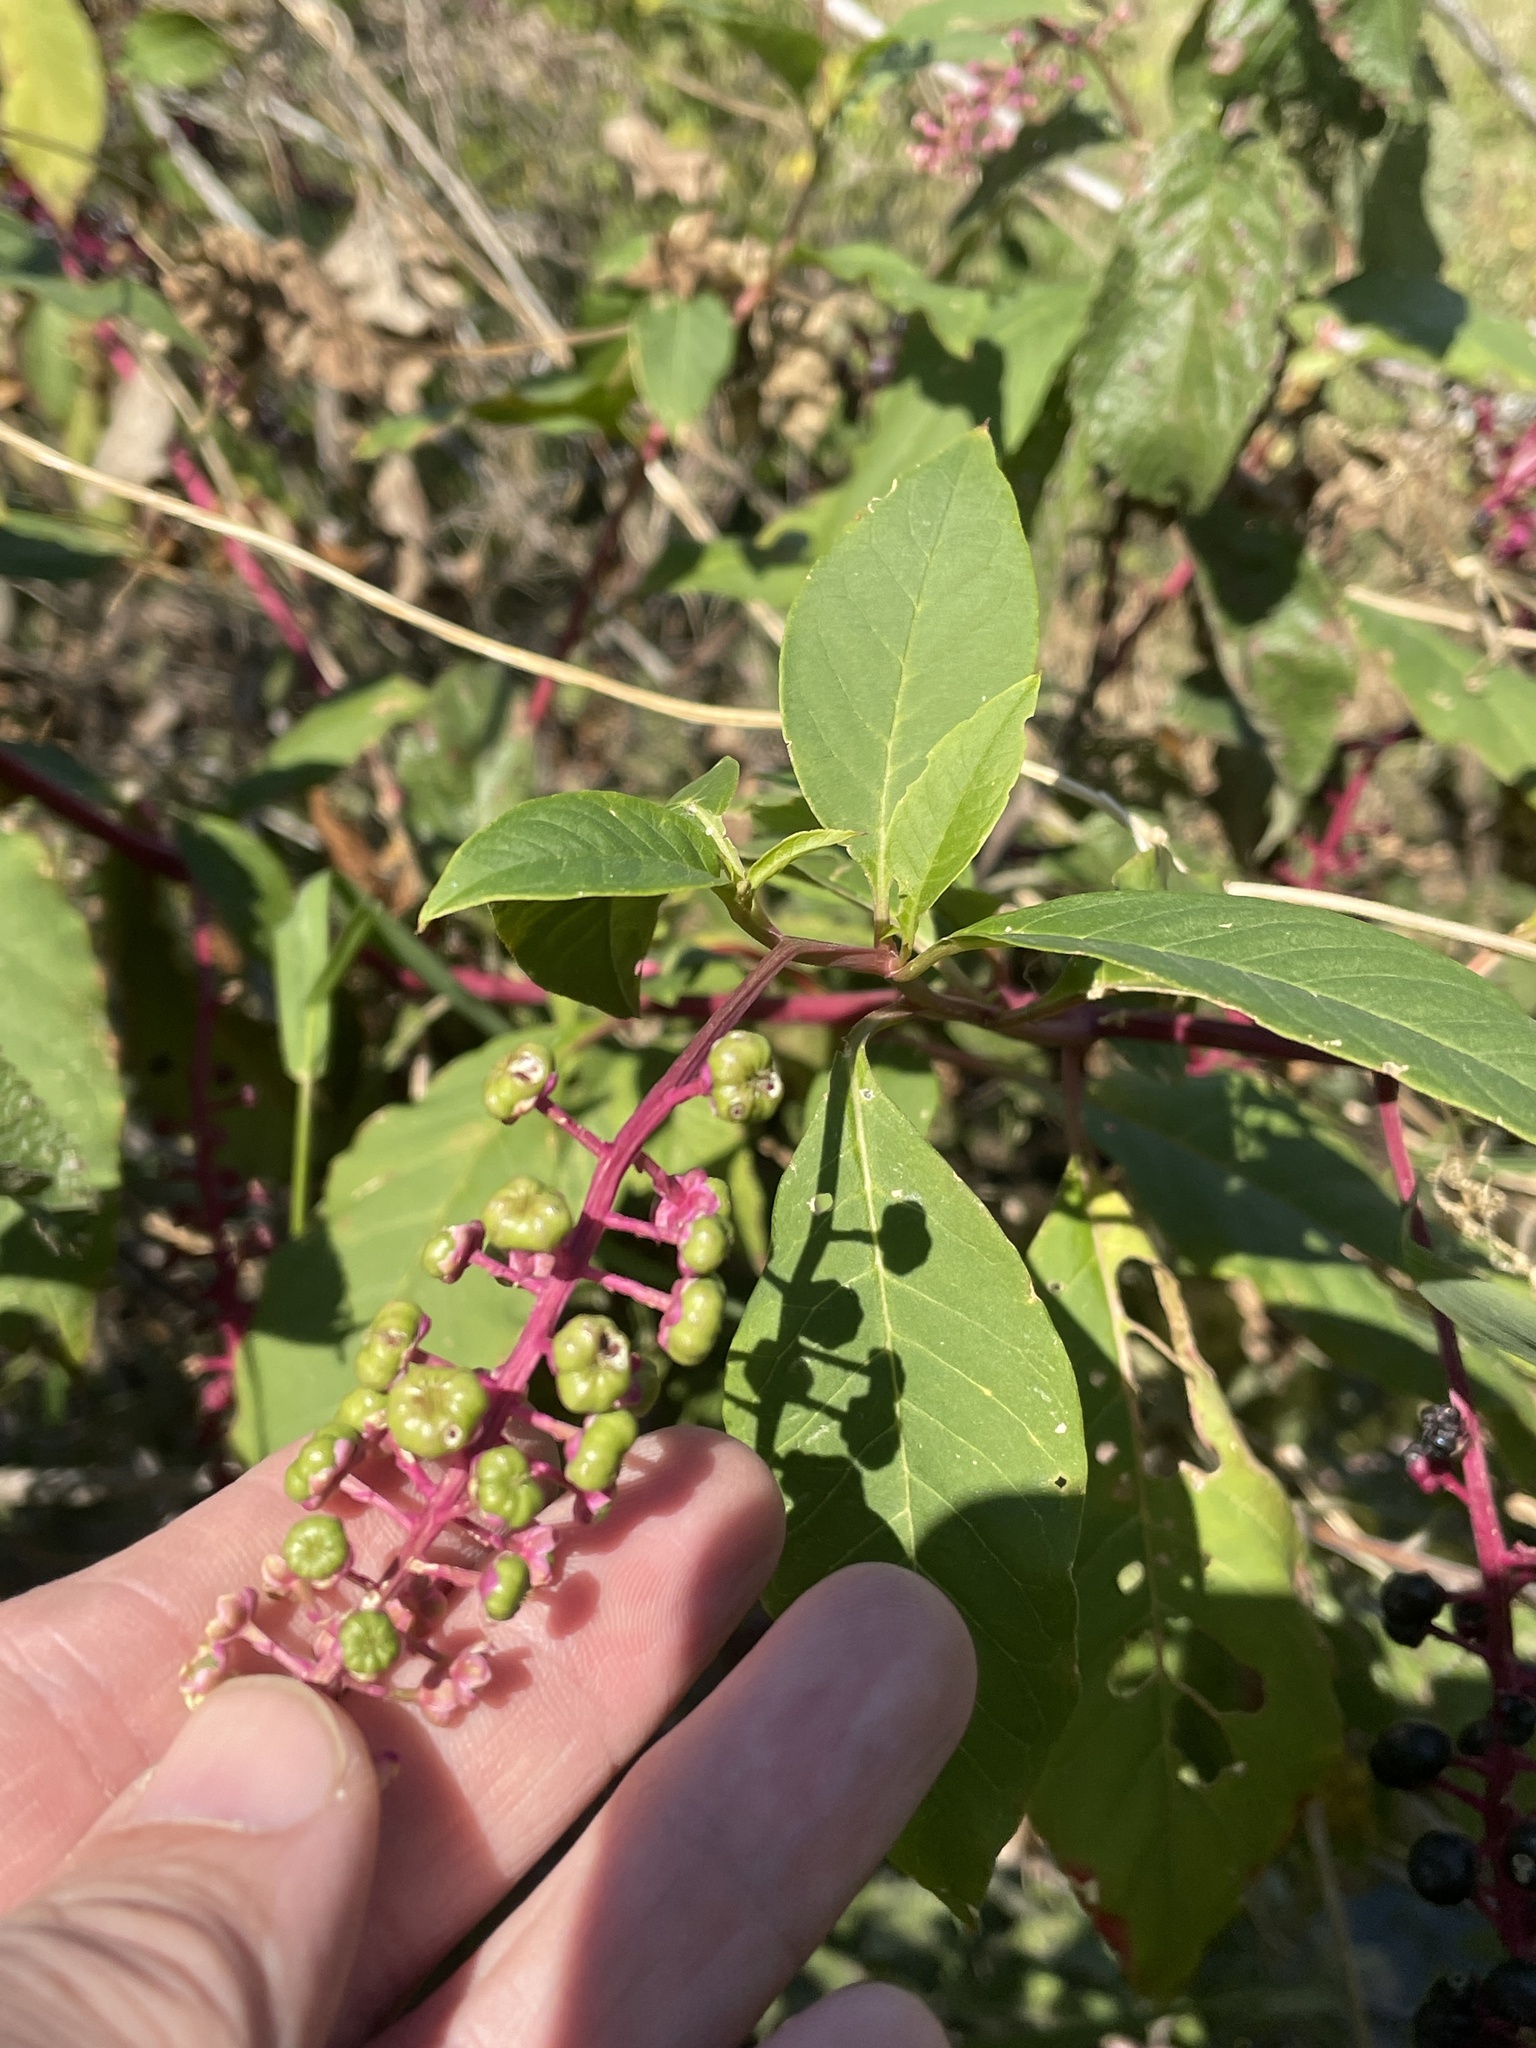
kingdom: Plantae
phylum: Tracheophyta
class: Magnoliopsida
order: Caryophyllales
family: Phytolaccaceae
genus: Phytolacca
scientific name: Phytolacca americana
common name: American pokeweed
